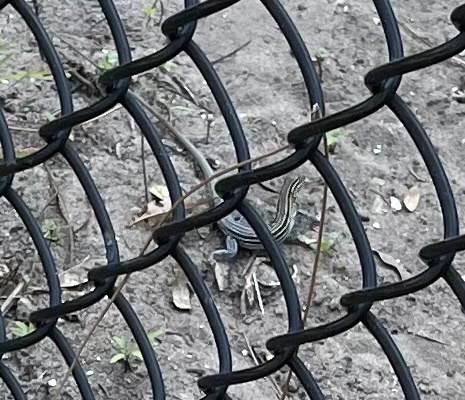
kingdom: Animalia
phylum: Chordata
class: Squamata
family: Teiidae
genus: Aspidoscelis
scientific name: Aspidoscelis sexlineatus
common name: Six-lined racerunner
